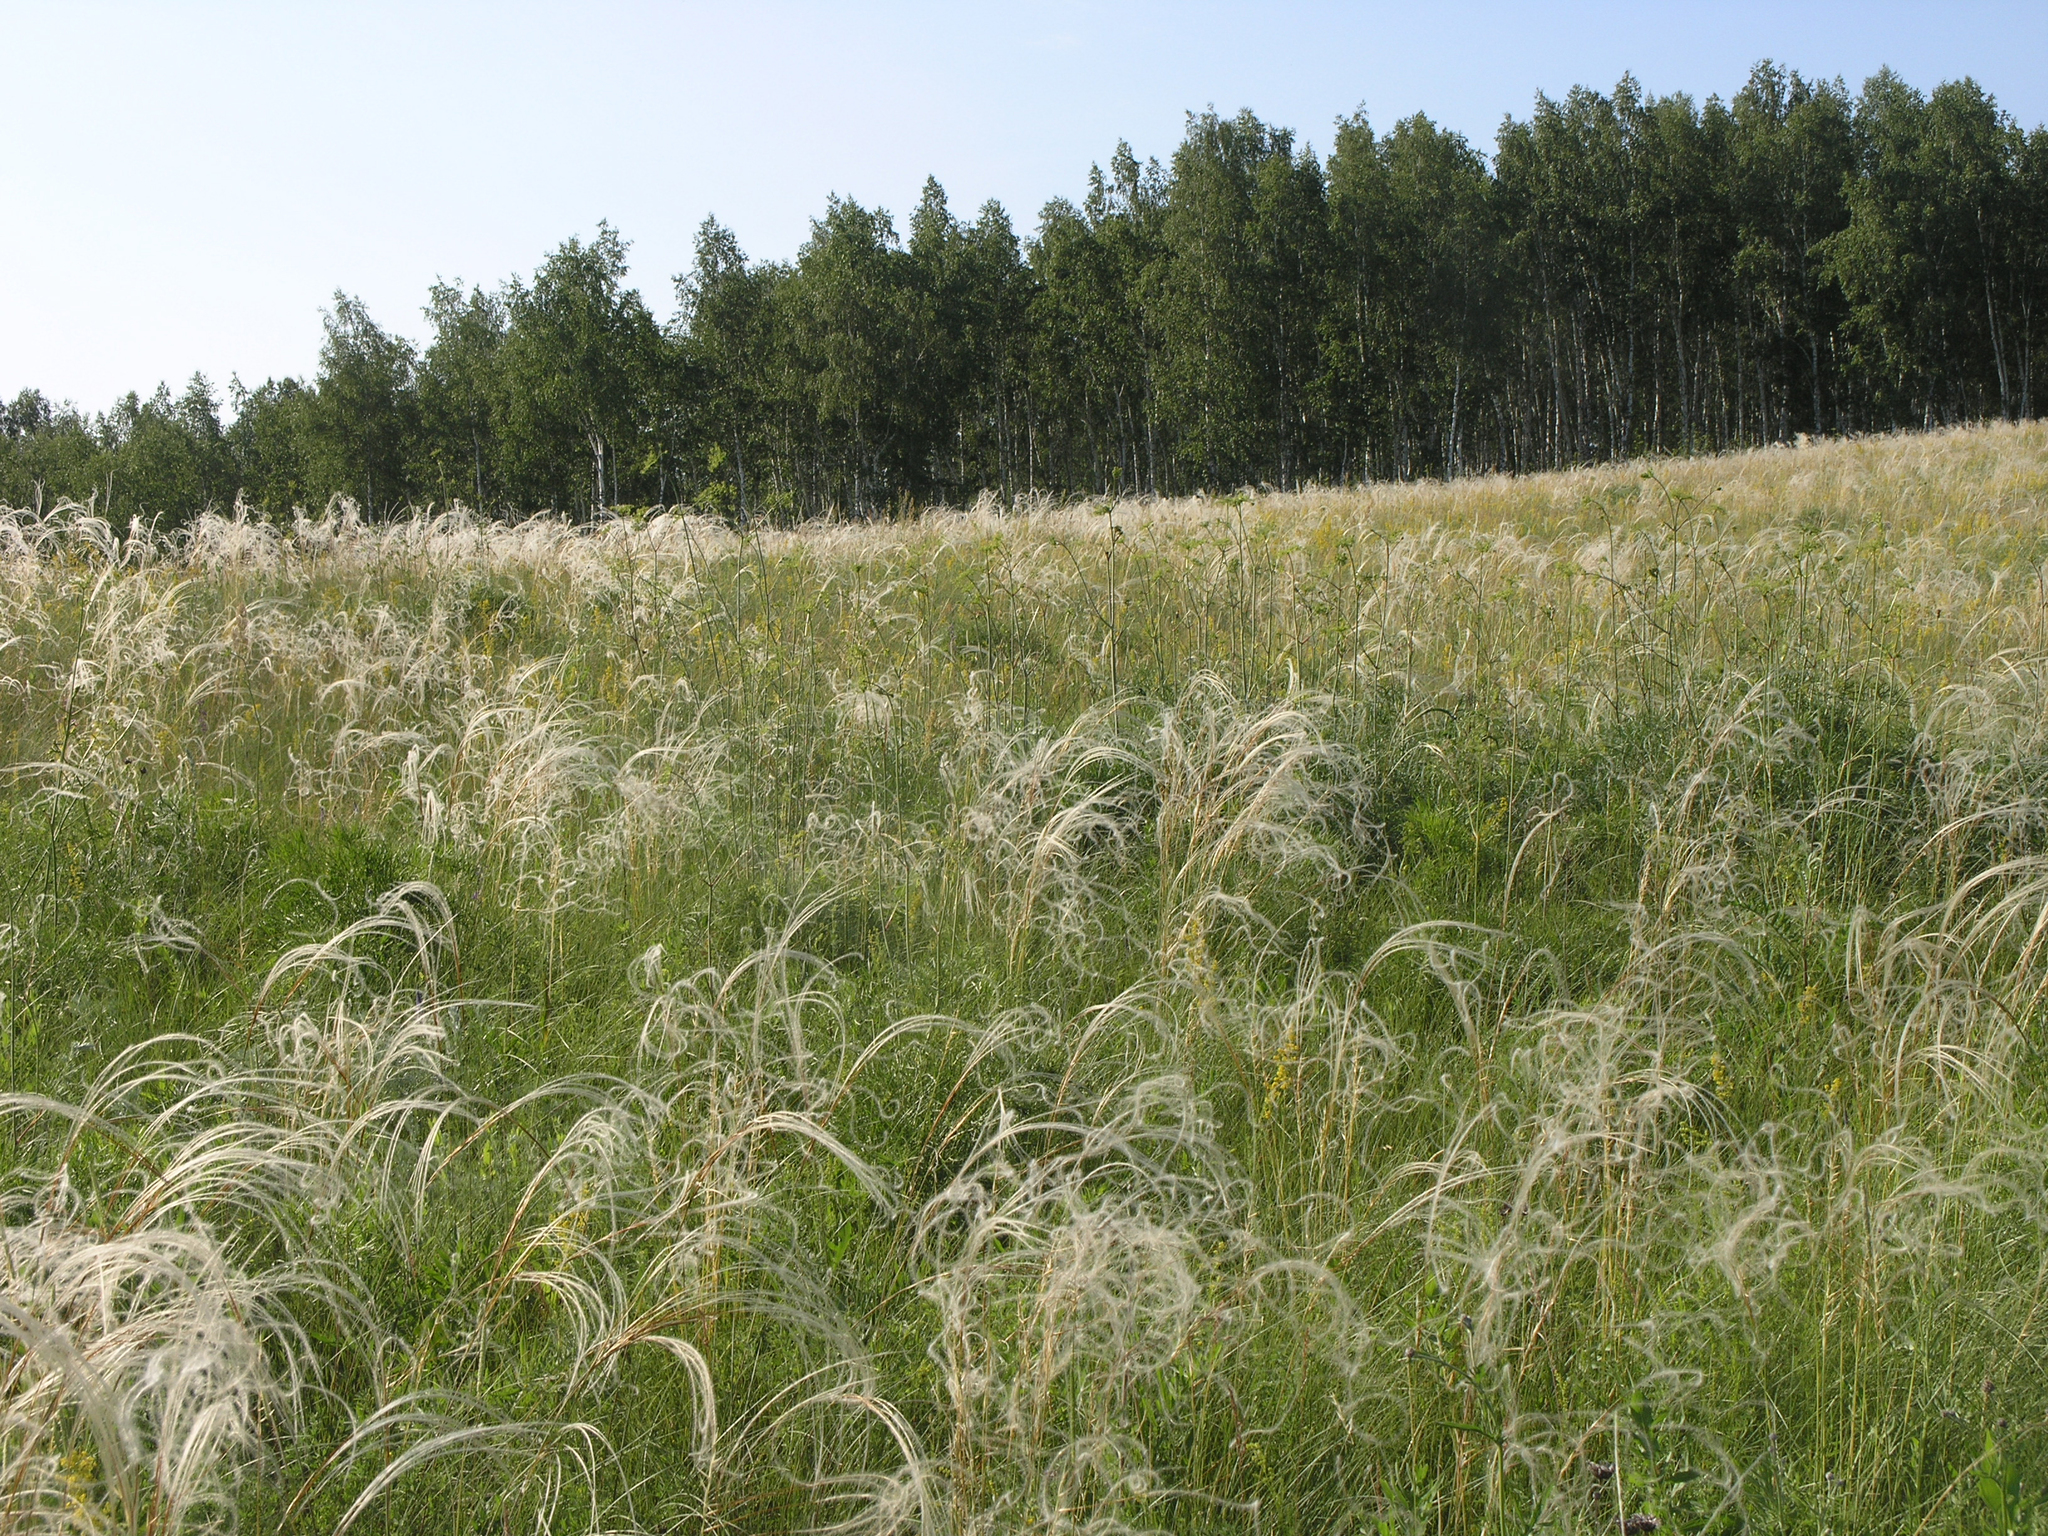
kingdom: Plantae
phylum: Tracheophyta
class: Magnoliopsida
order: Fagales
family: Betulaceae
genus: Betula
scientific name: Betula pendula
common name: Silver birch
